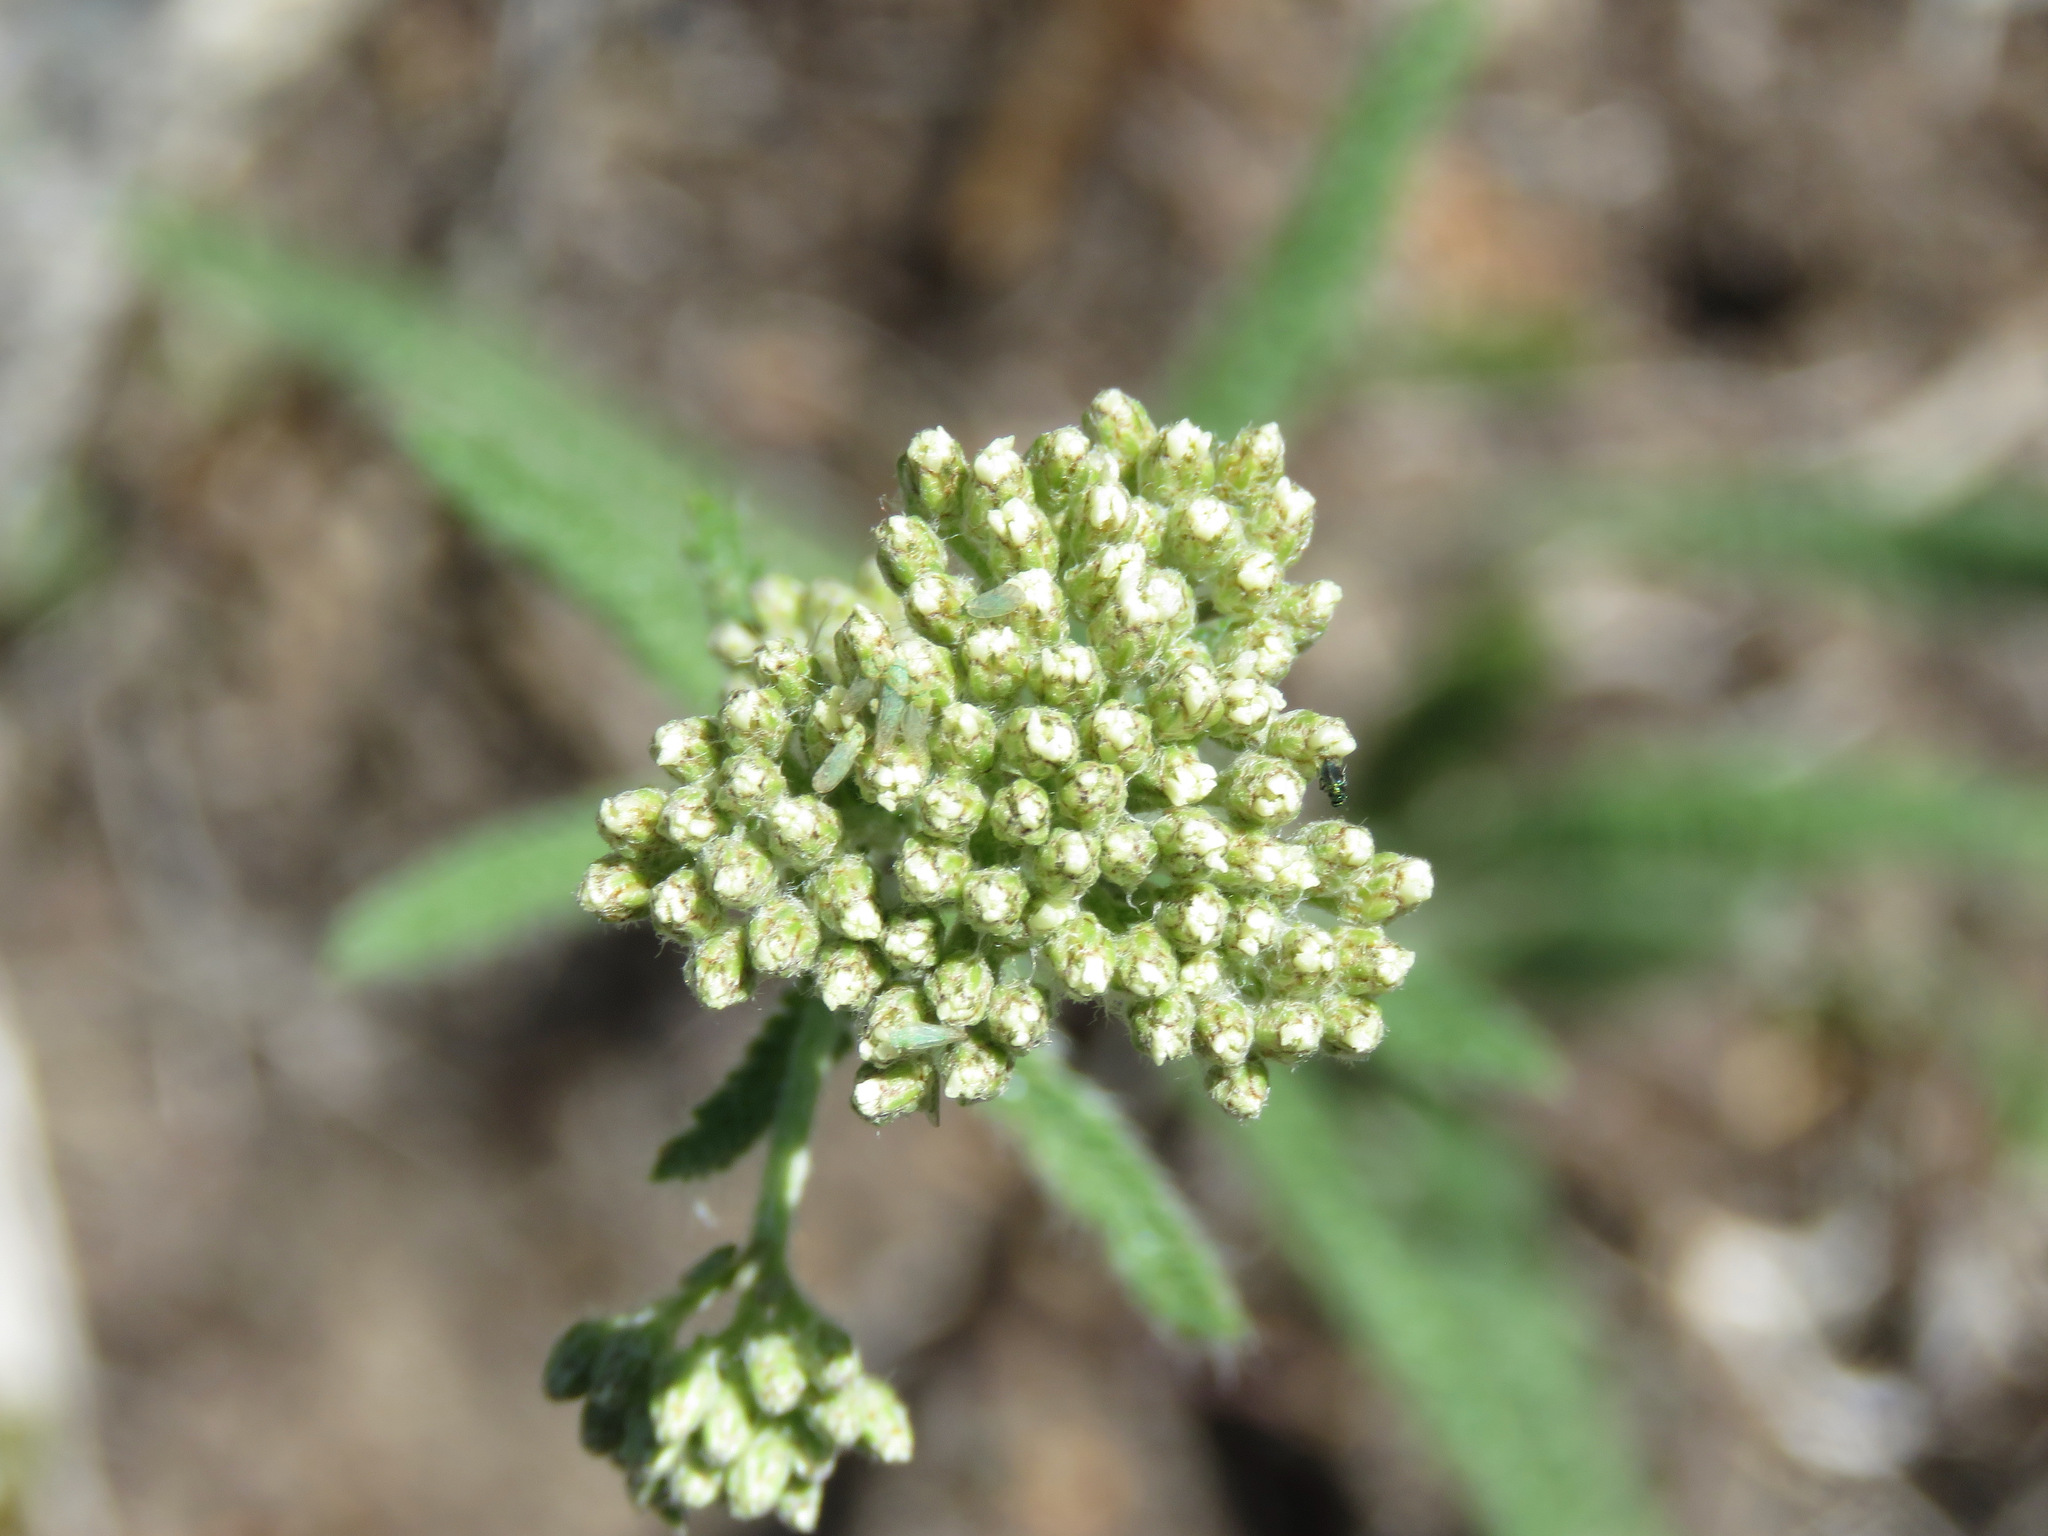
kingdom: Plantae
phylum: Tracheophyta
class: Magnoliopsida
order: Asterales
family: Asteraceae
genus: Achillea
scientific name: Achillea millefolium
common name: Yarrow
